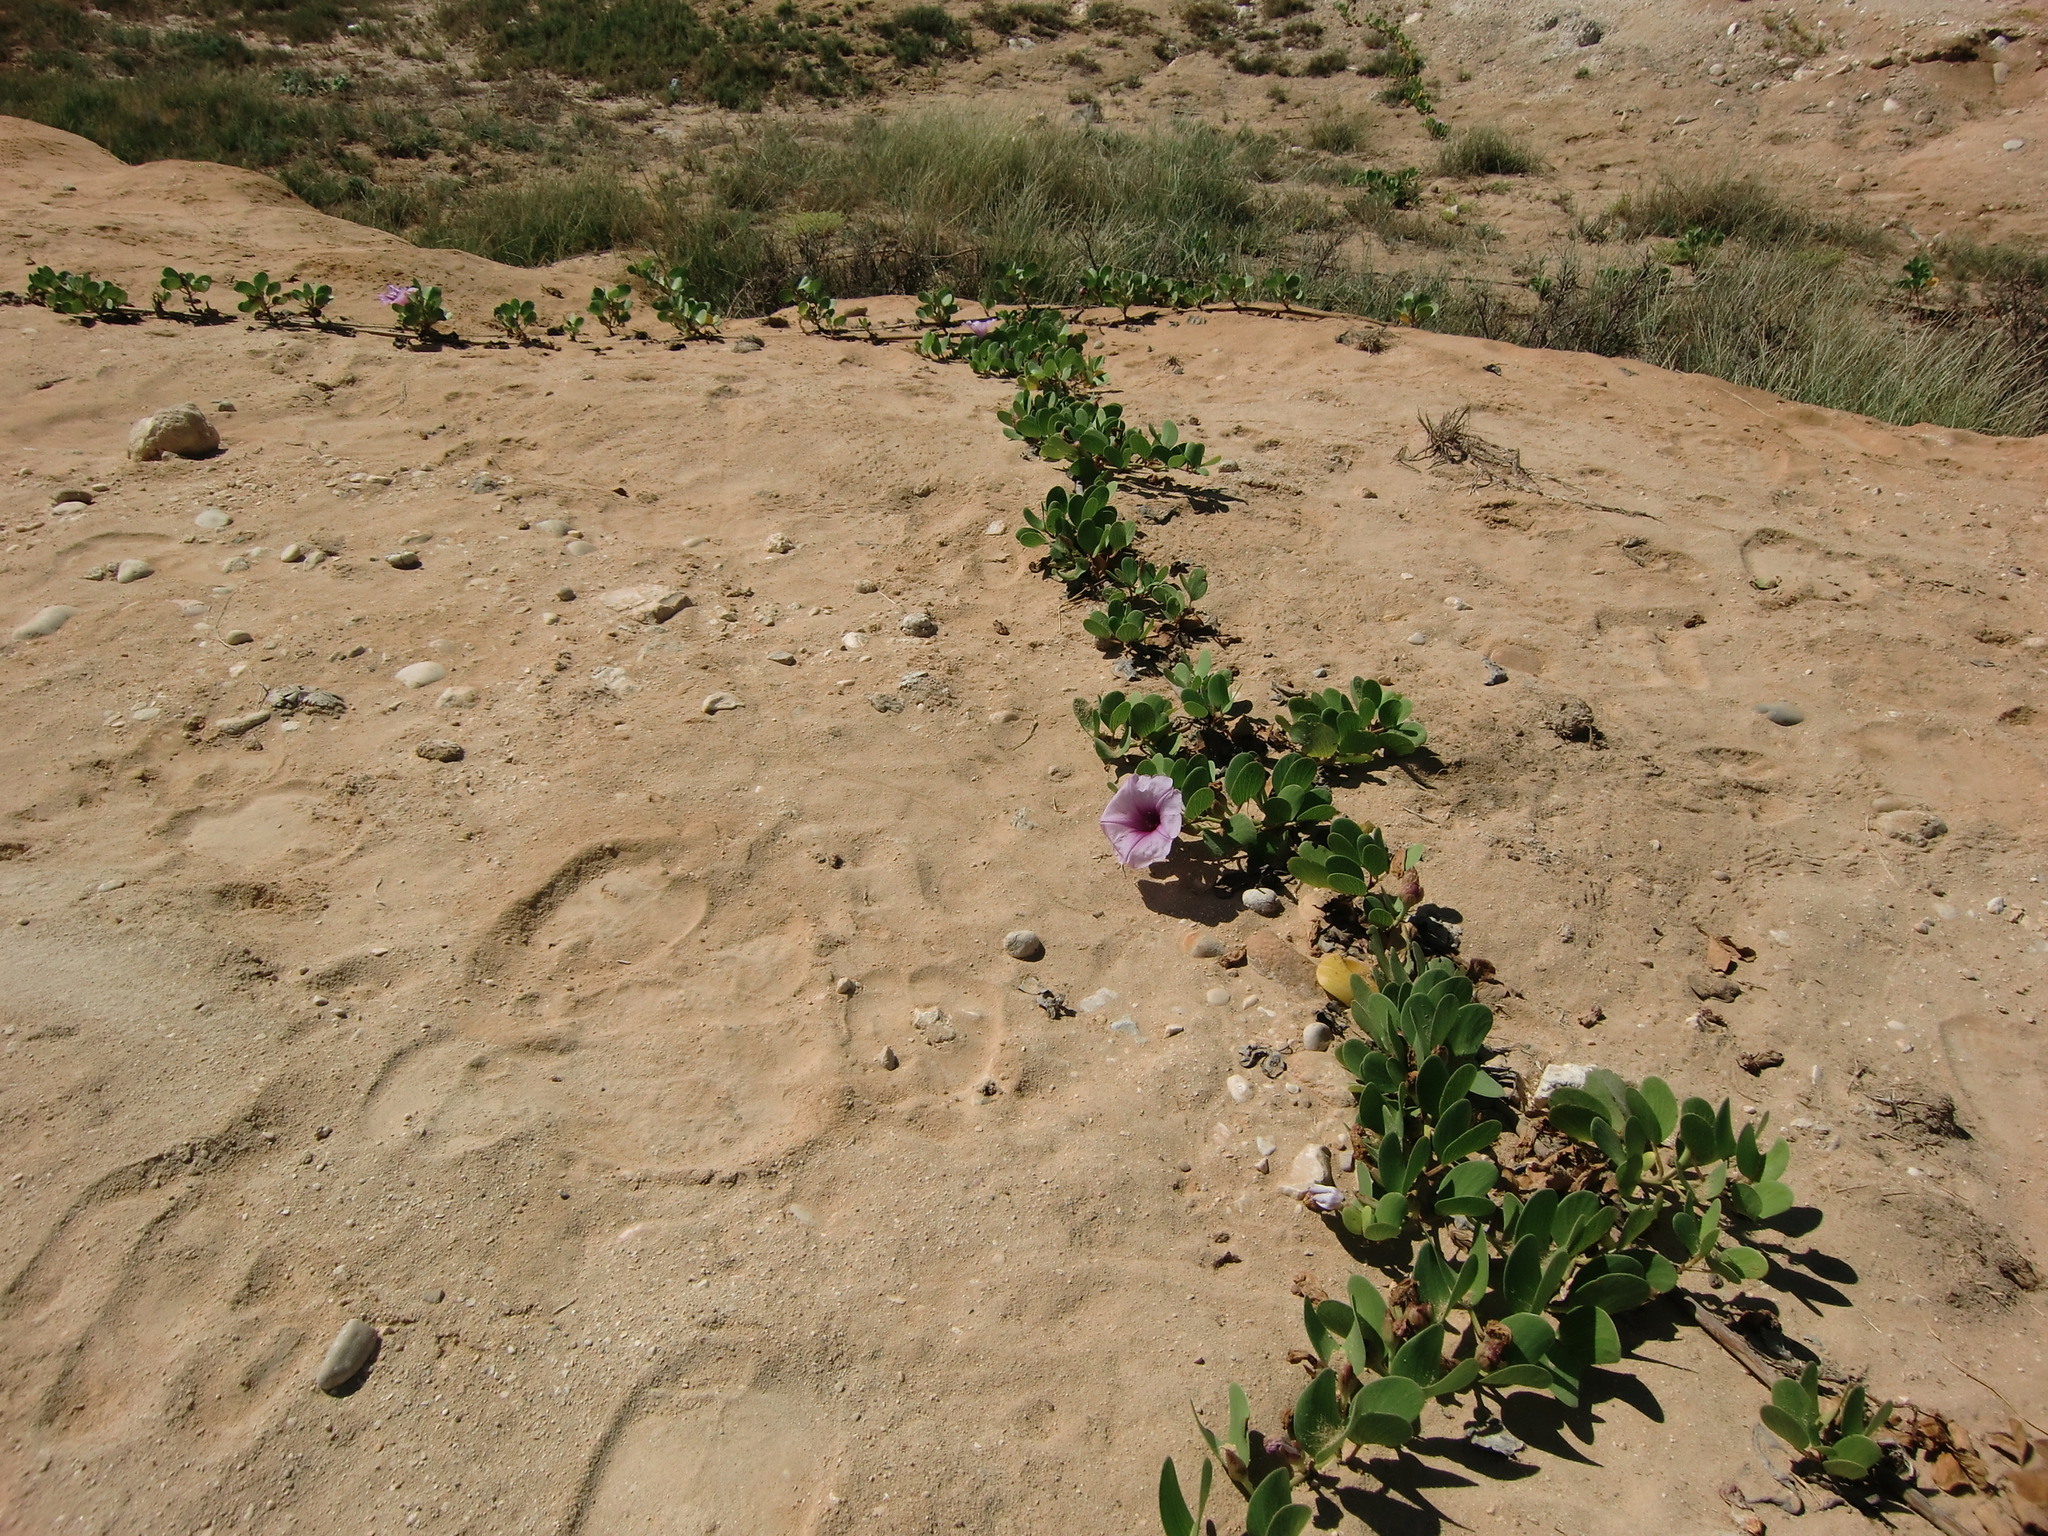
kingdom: Plantae
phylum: Tracheophyta
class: Magnoliopsida
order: Solanales
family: Convolvulaceae
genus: Ipomoea
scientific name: Ipomoea pes-caprae
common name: Beach morning glory
